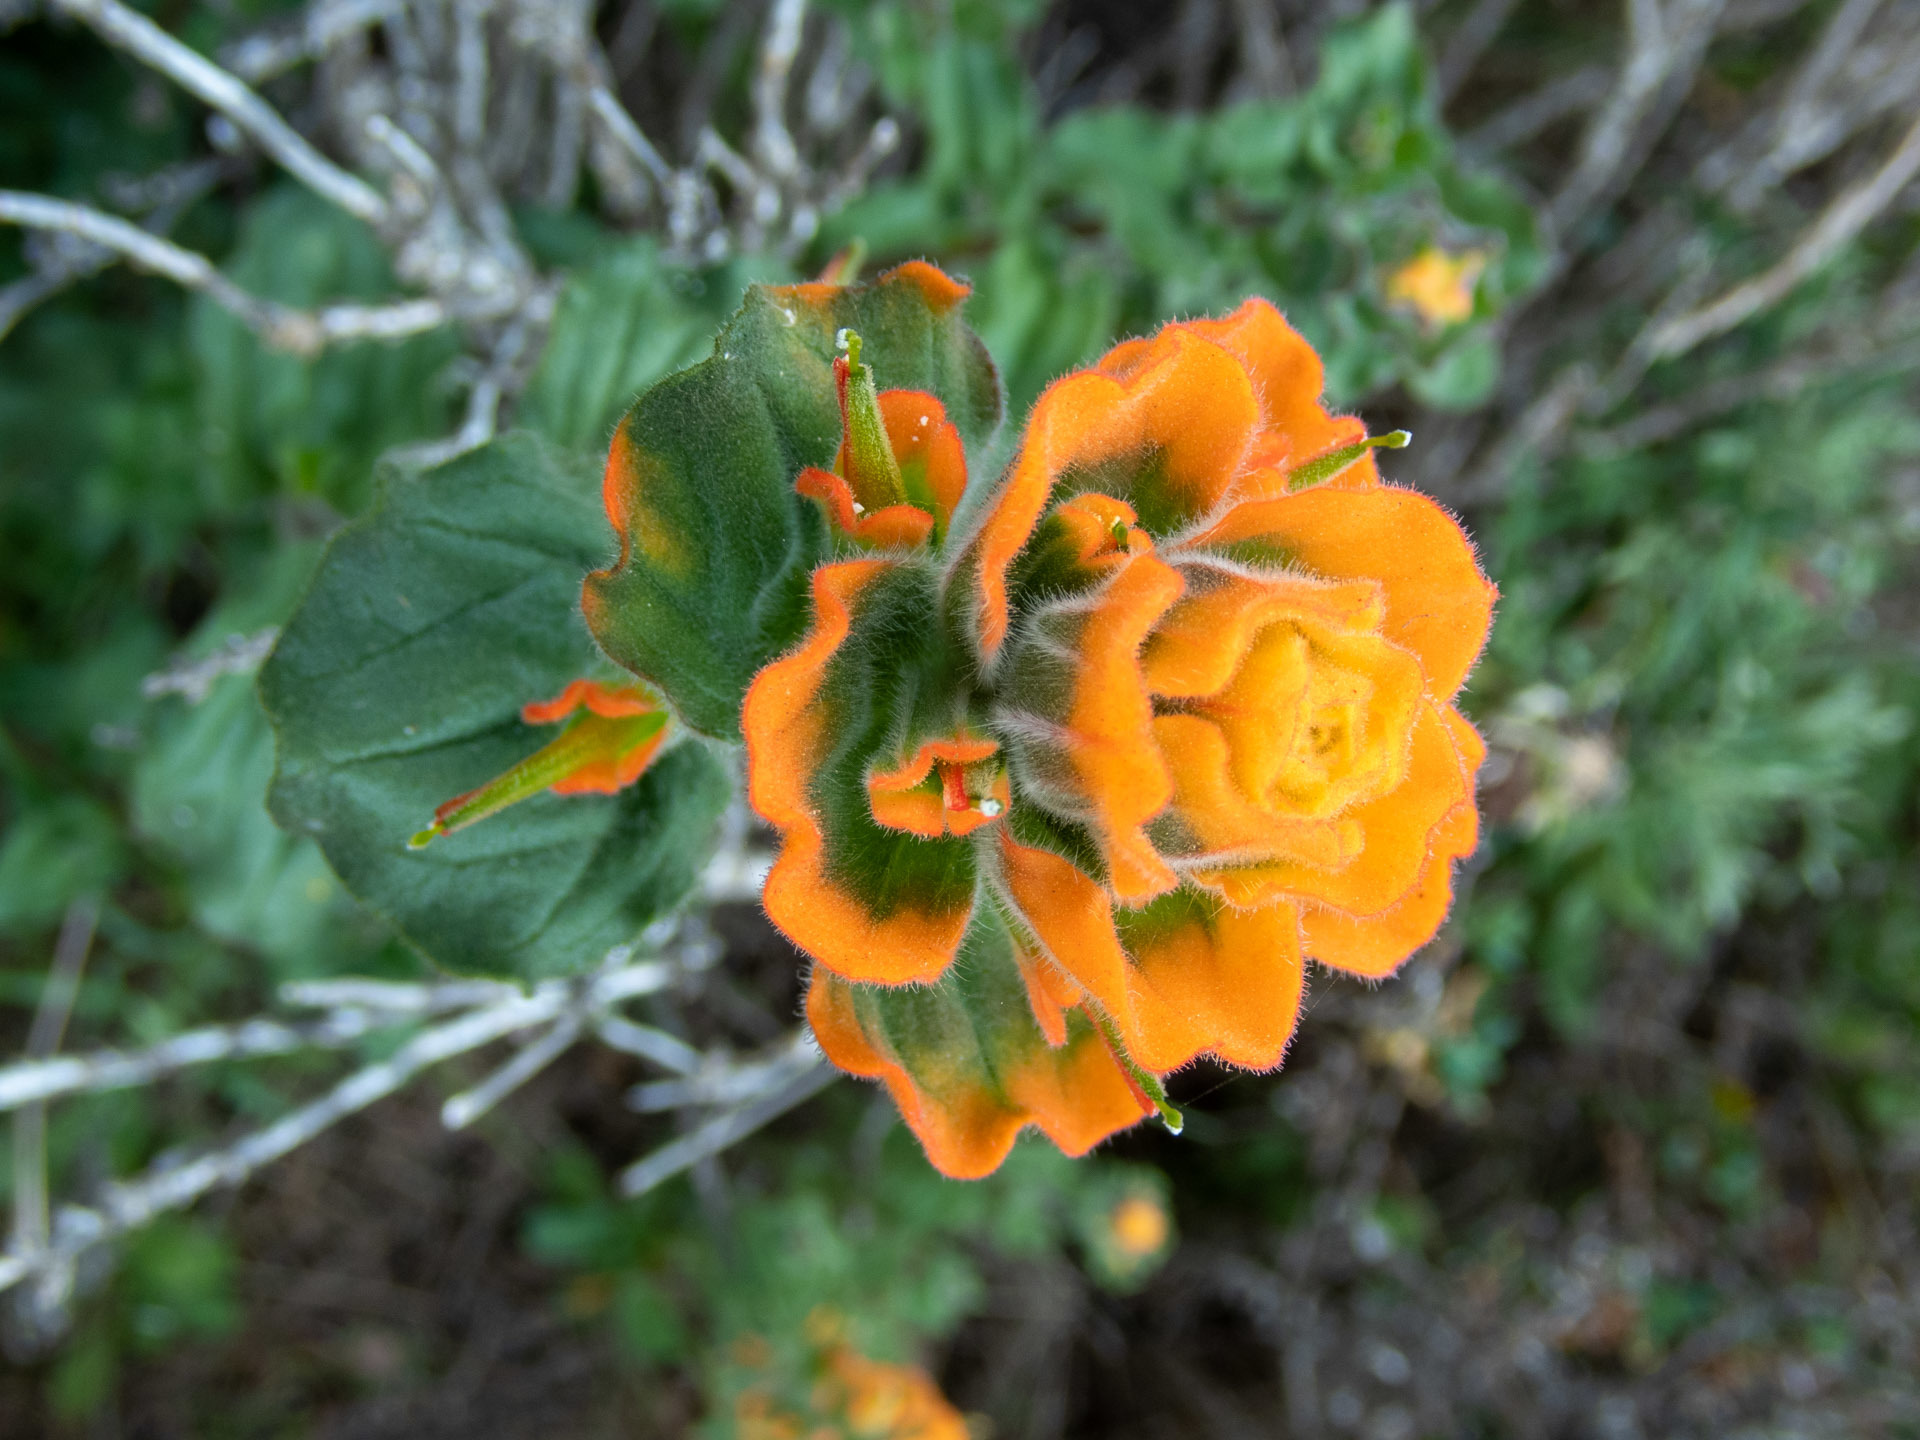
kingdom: Plantae
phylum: Tracheophyta
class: Magnoliopsida
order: Lamiales
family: Orobanchaceae
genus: Castilleja
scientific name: Castilleja latifolia
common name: Monterey indian paintbrush
